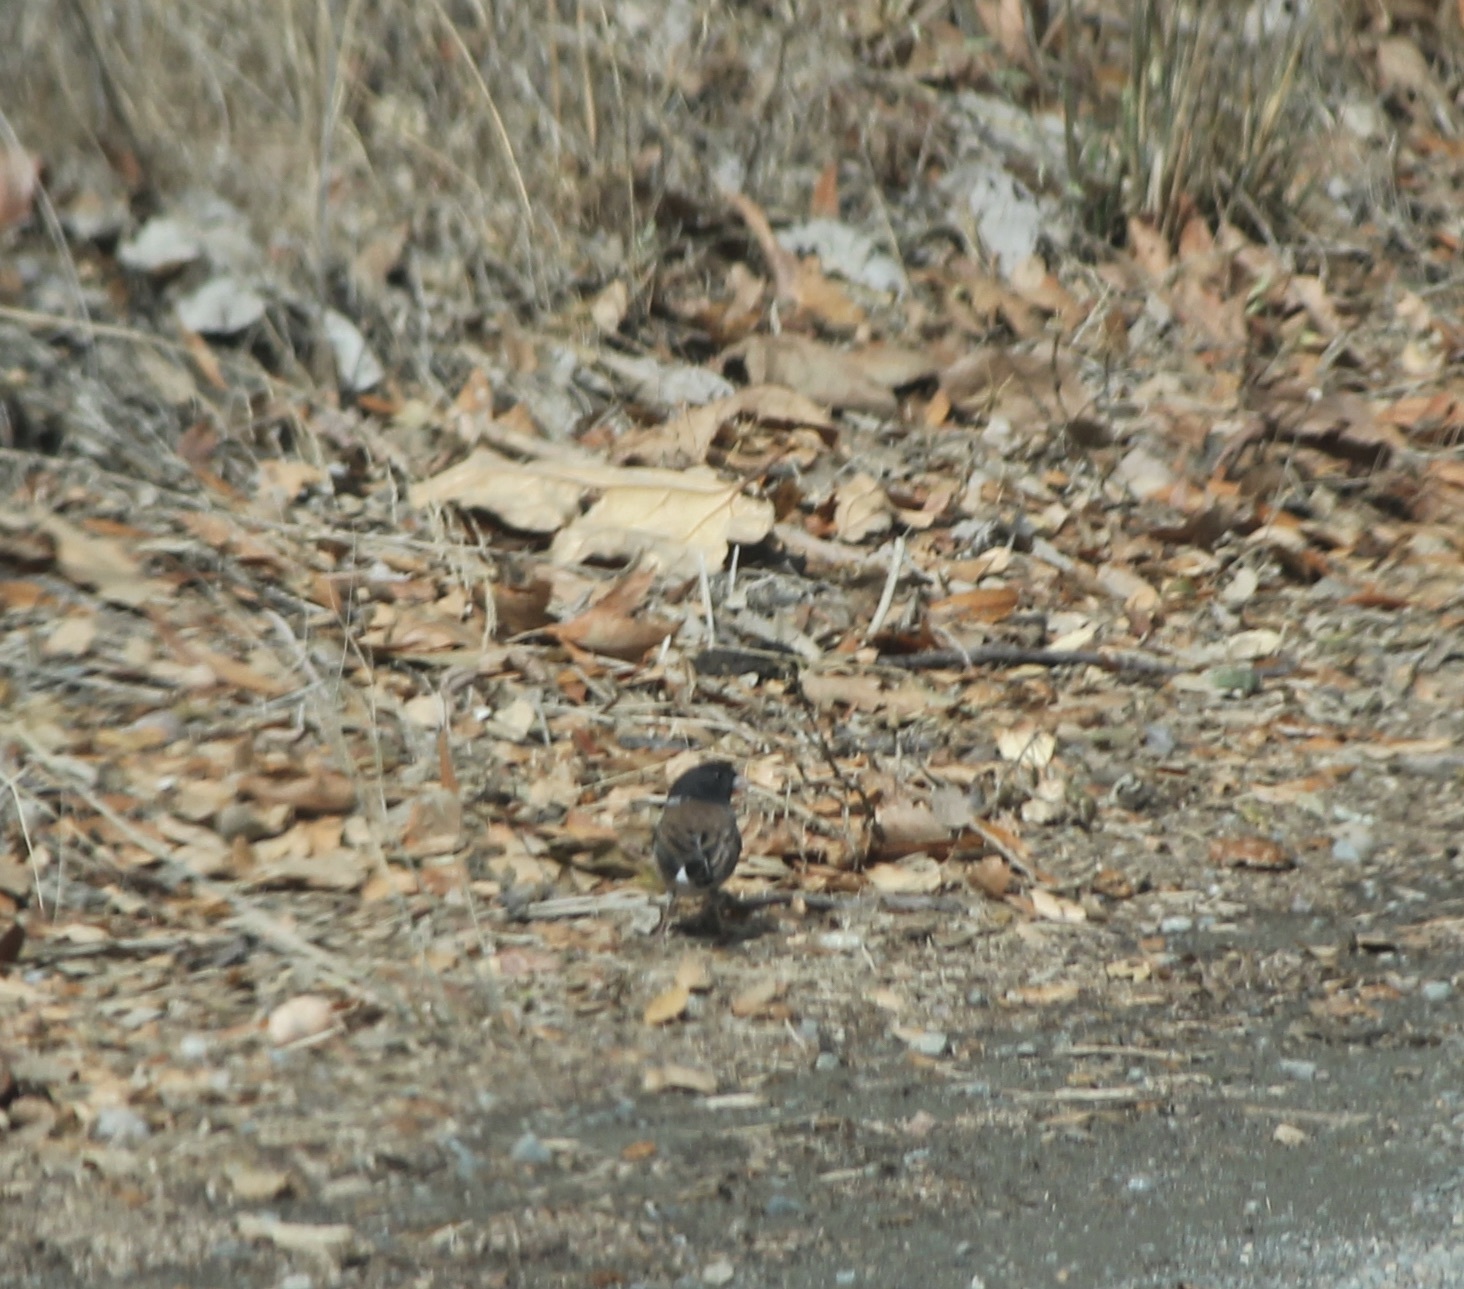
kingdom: Animalia
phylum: Chordata
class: Aves
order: Passeriformes
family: Passerellidae
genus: Junco
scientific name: Junco hyemalis
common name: Dark-eyed junco
